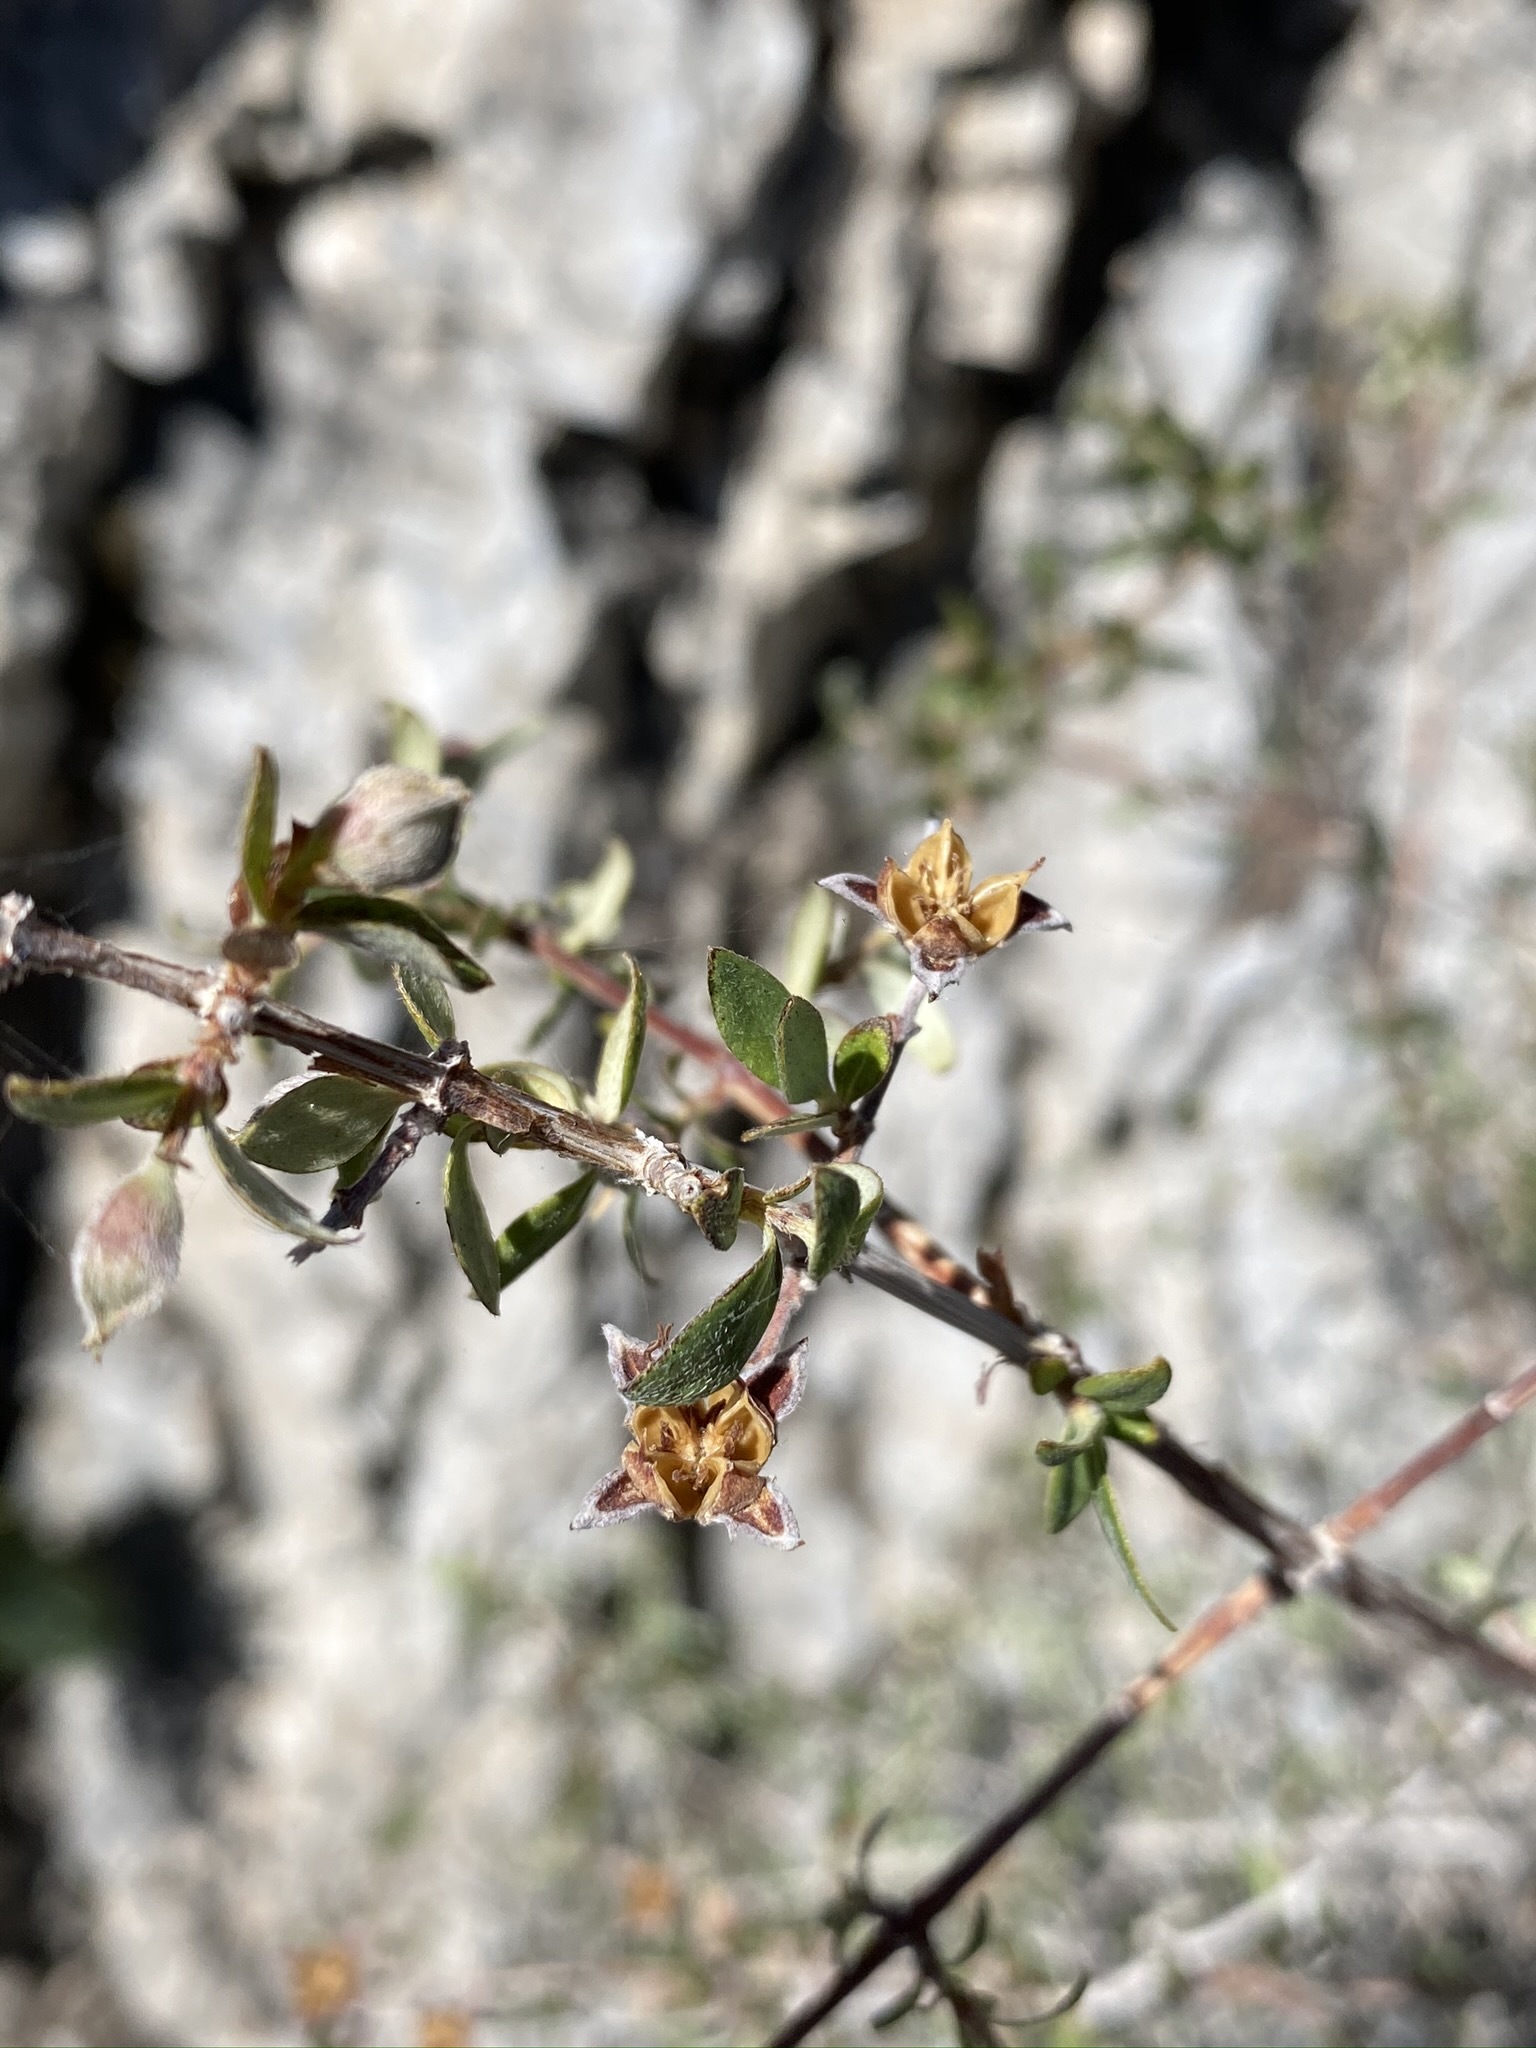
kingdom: Plantae
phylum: Tracheophyta
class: Magnoliopsida
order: Cornales
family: Hydrangeaceae
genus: Philadelphus
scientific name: Philadelphus microphyllus
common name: Desert mock orange
